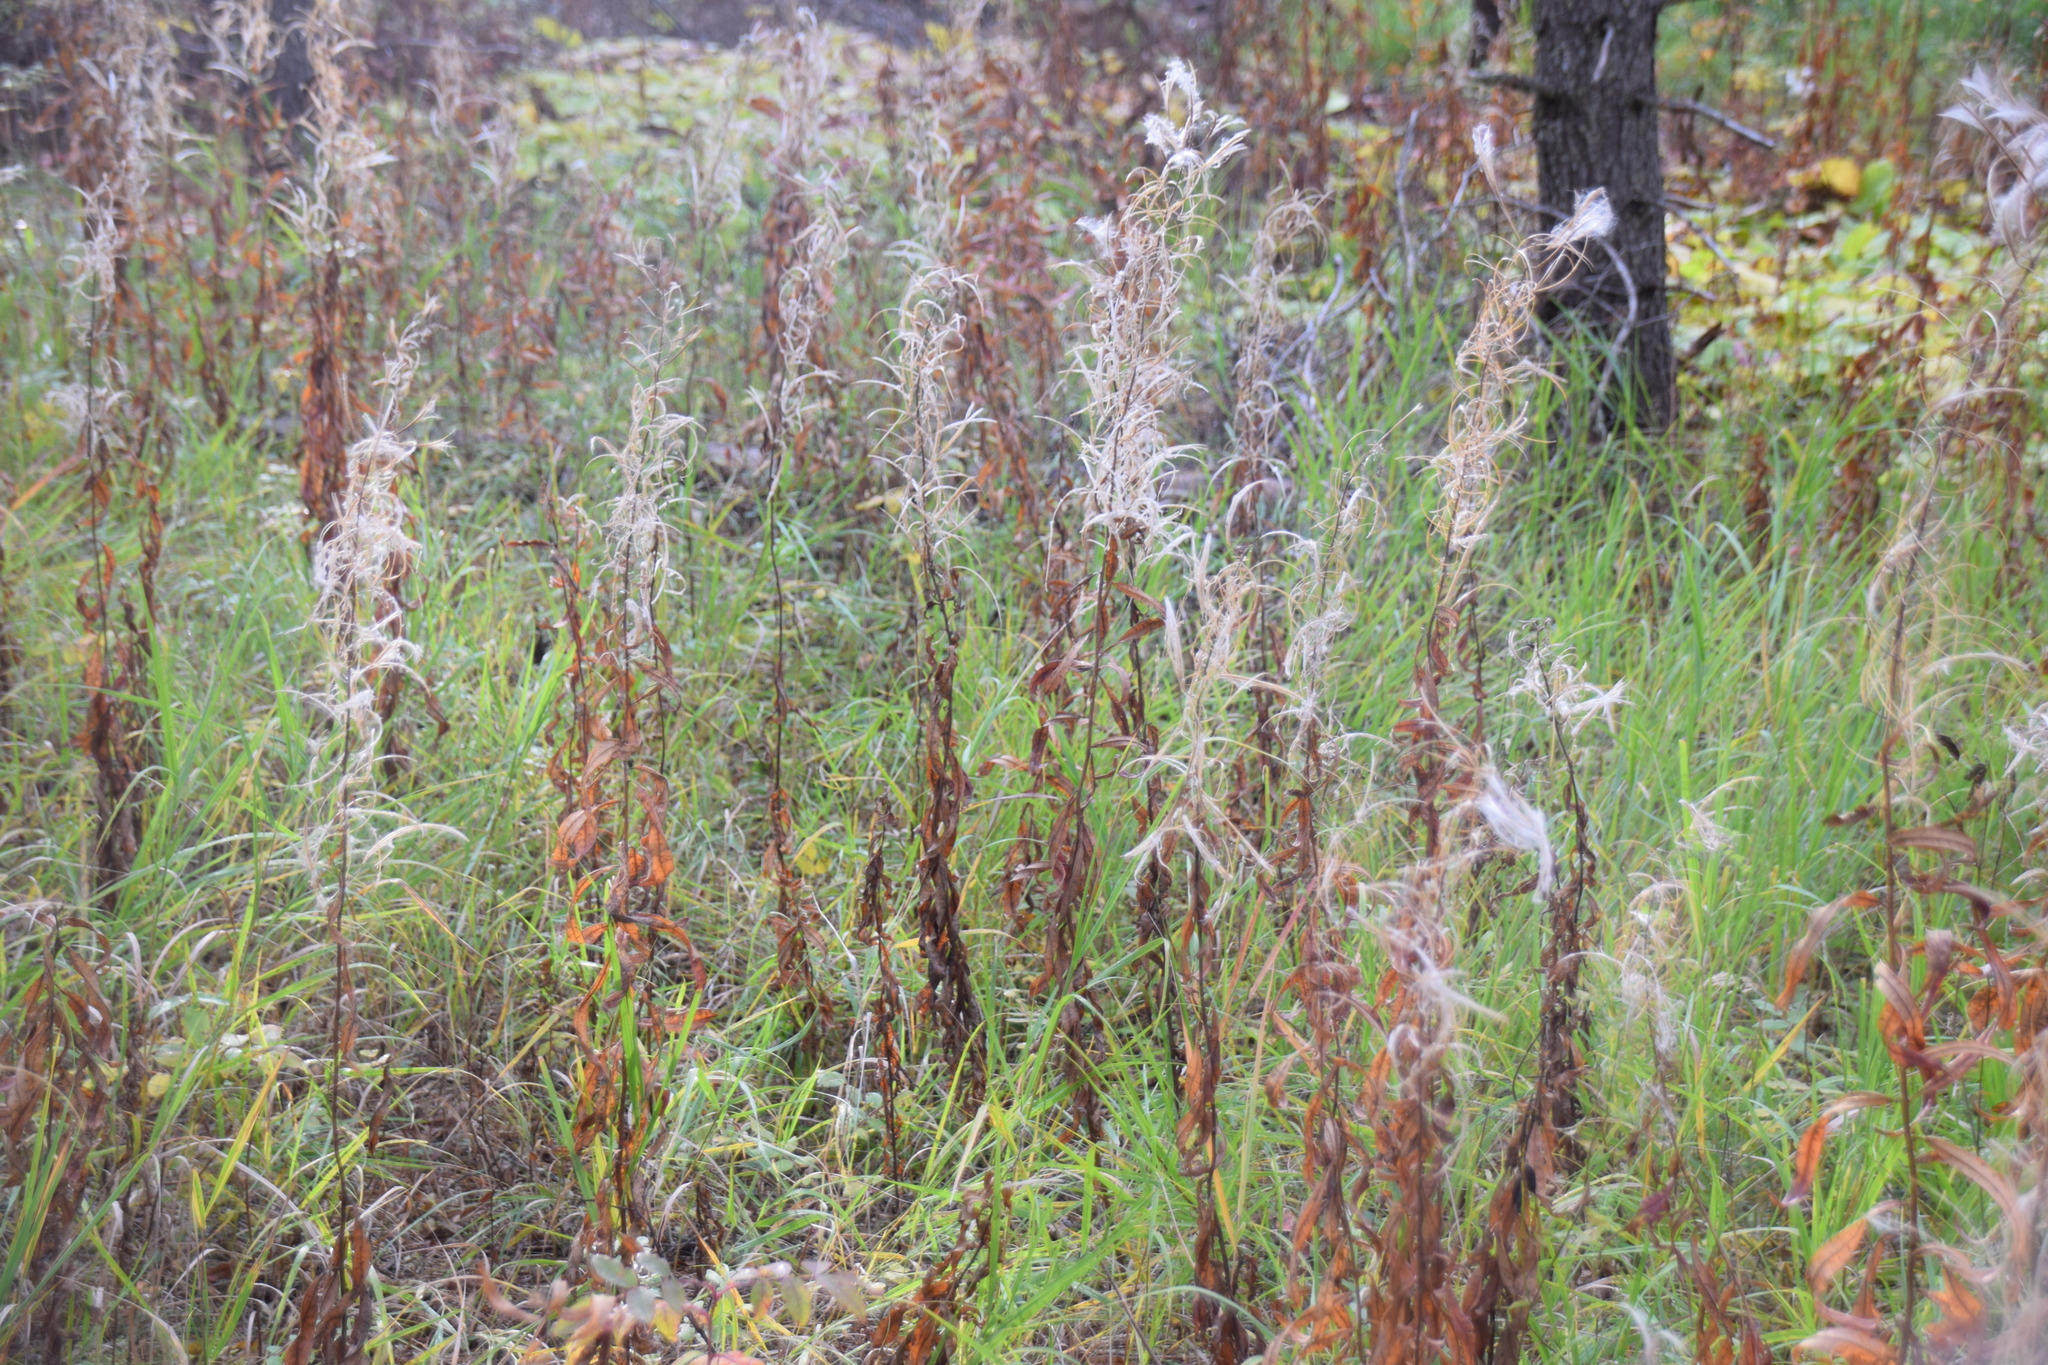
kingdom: Plantae
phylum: Tracheophyta
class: Magnoliopsida
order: Myrtales
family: Onagraceae
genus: Chamaenerion
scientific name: Chamaenerion angustifolium
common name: Fireweed
